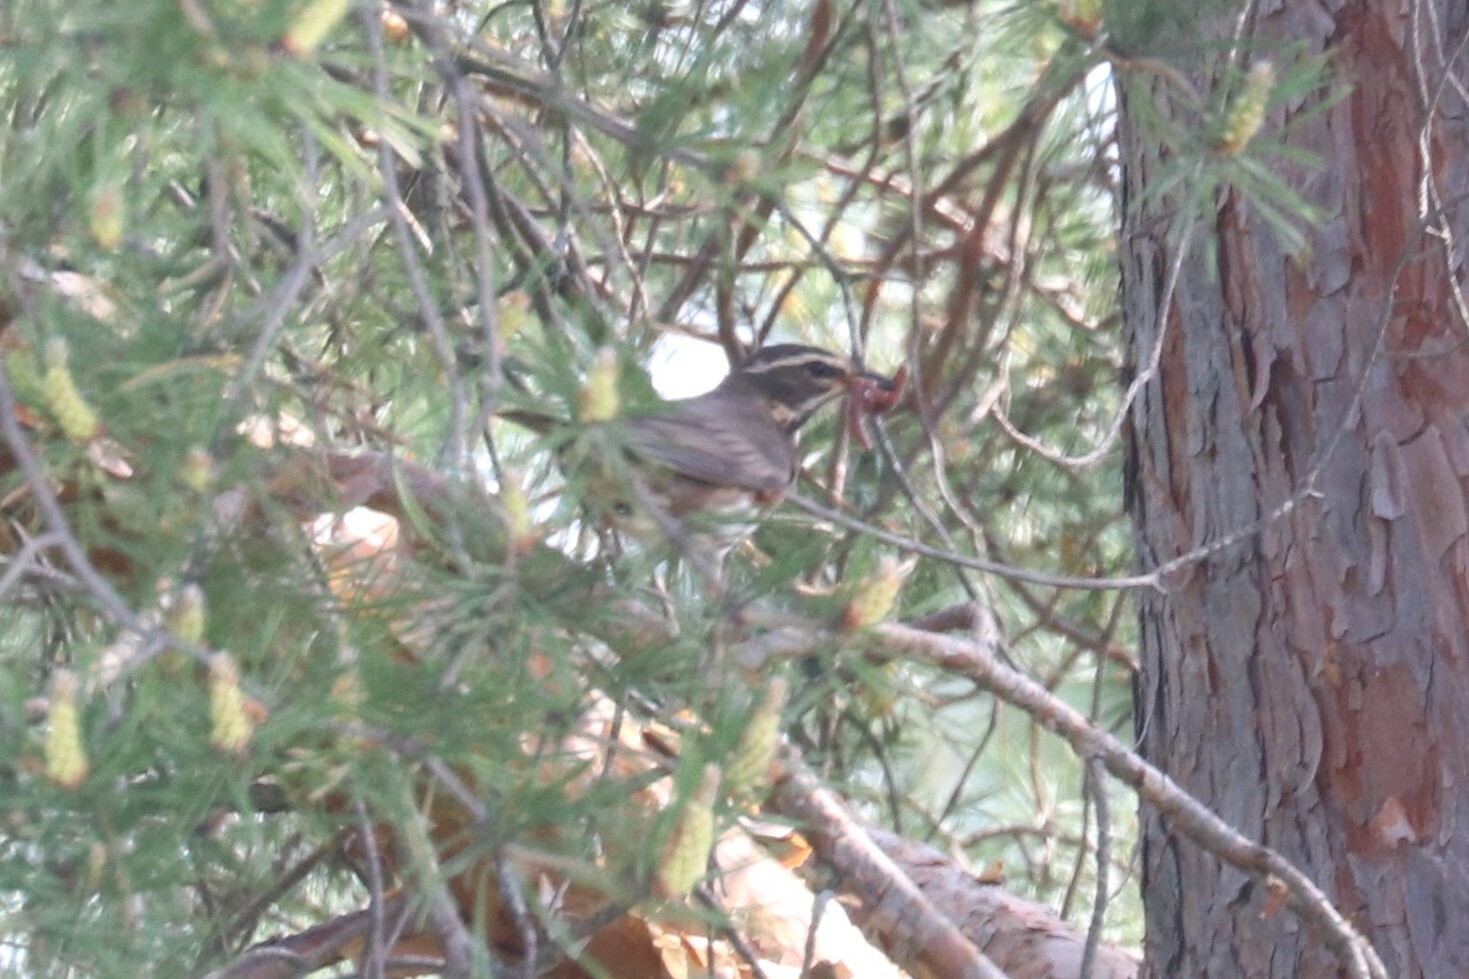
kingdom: Animalia
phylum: Chordata
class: Aves
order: Passeriformes
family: Turdidae
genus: Turdus
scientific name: Turdus iliacus
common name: Redwing
